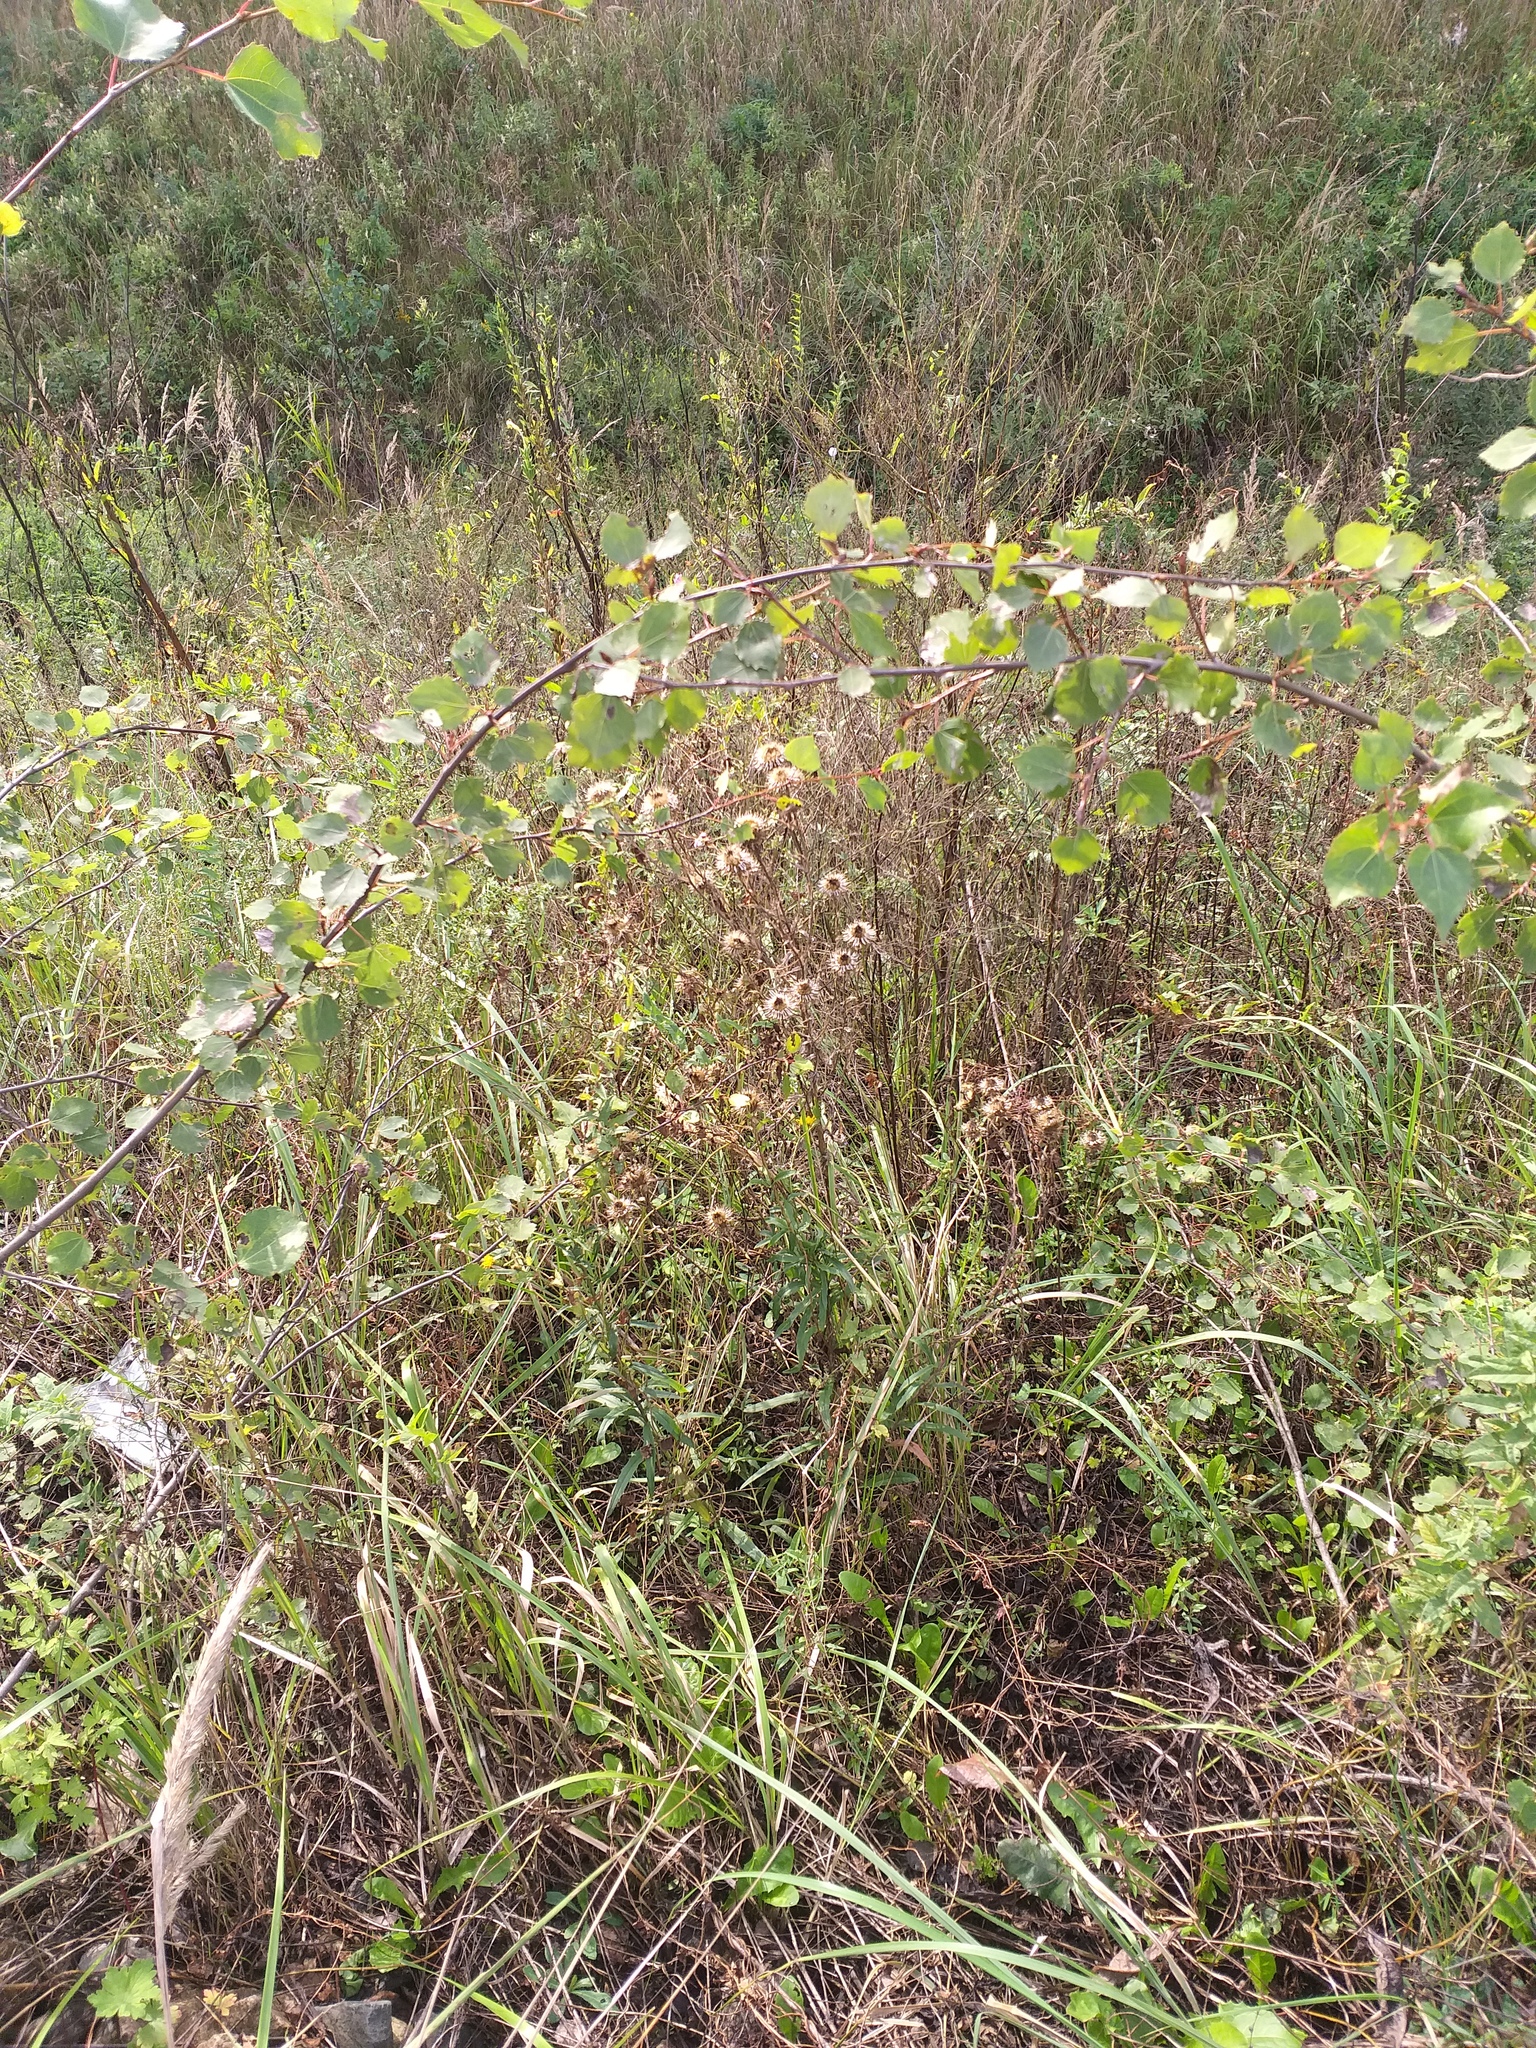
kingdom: Plantae
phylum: Tracheophyta
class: Magnoliopsida
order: Asterales
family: Asteraceae
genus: Carlina
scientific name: Carlina biebersteinii
